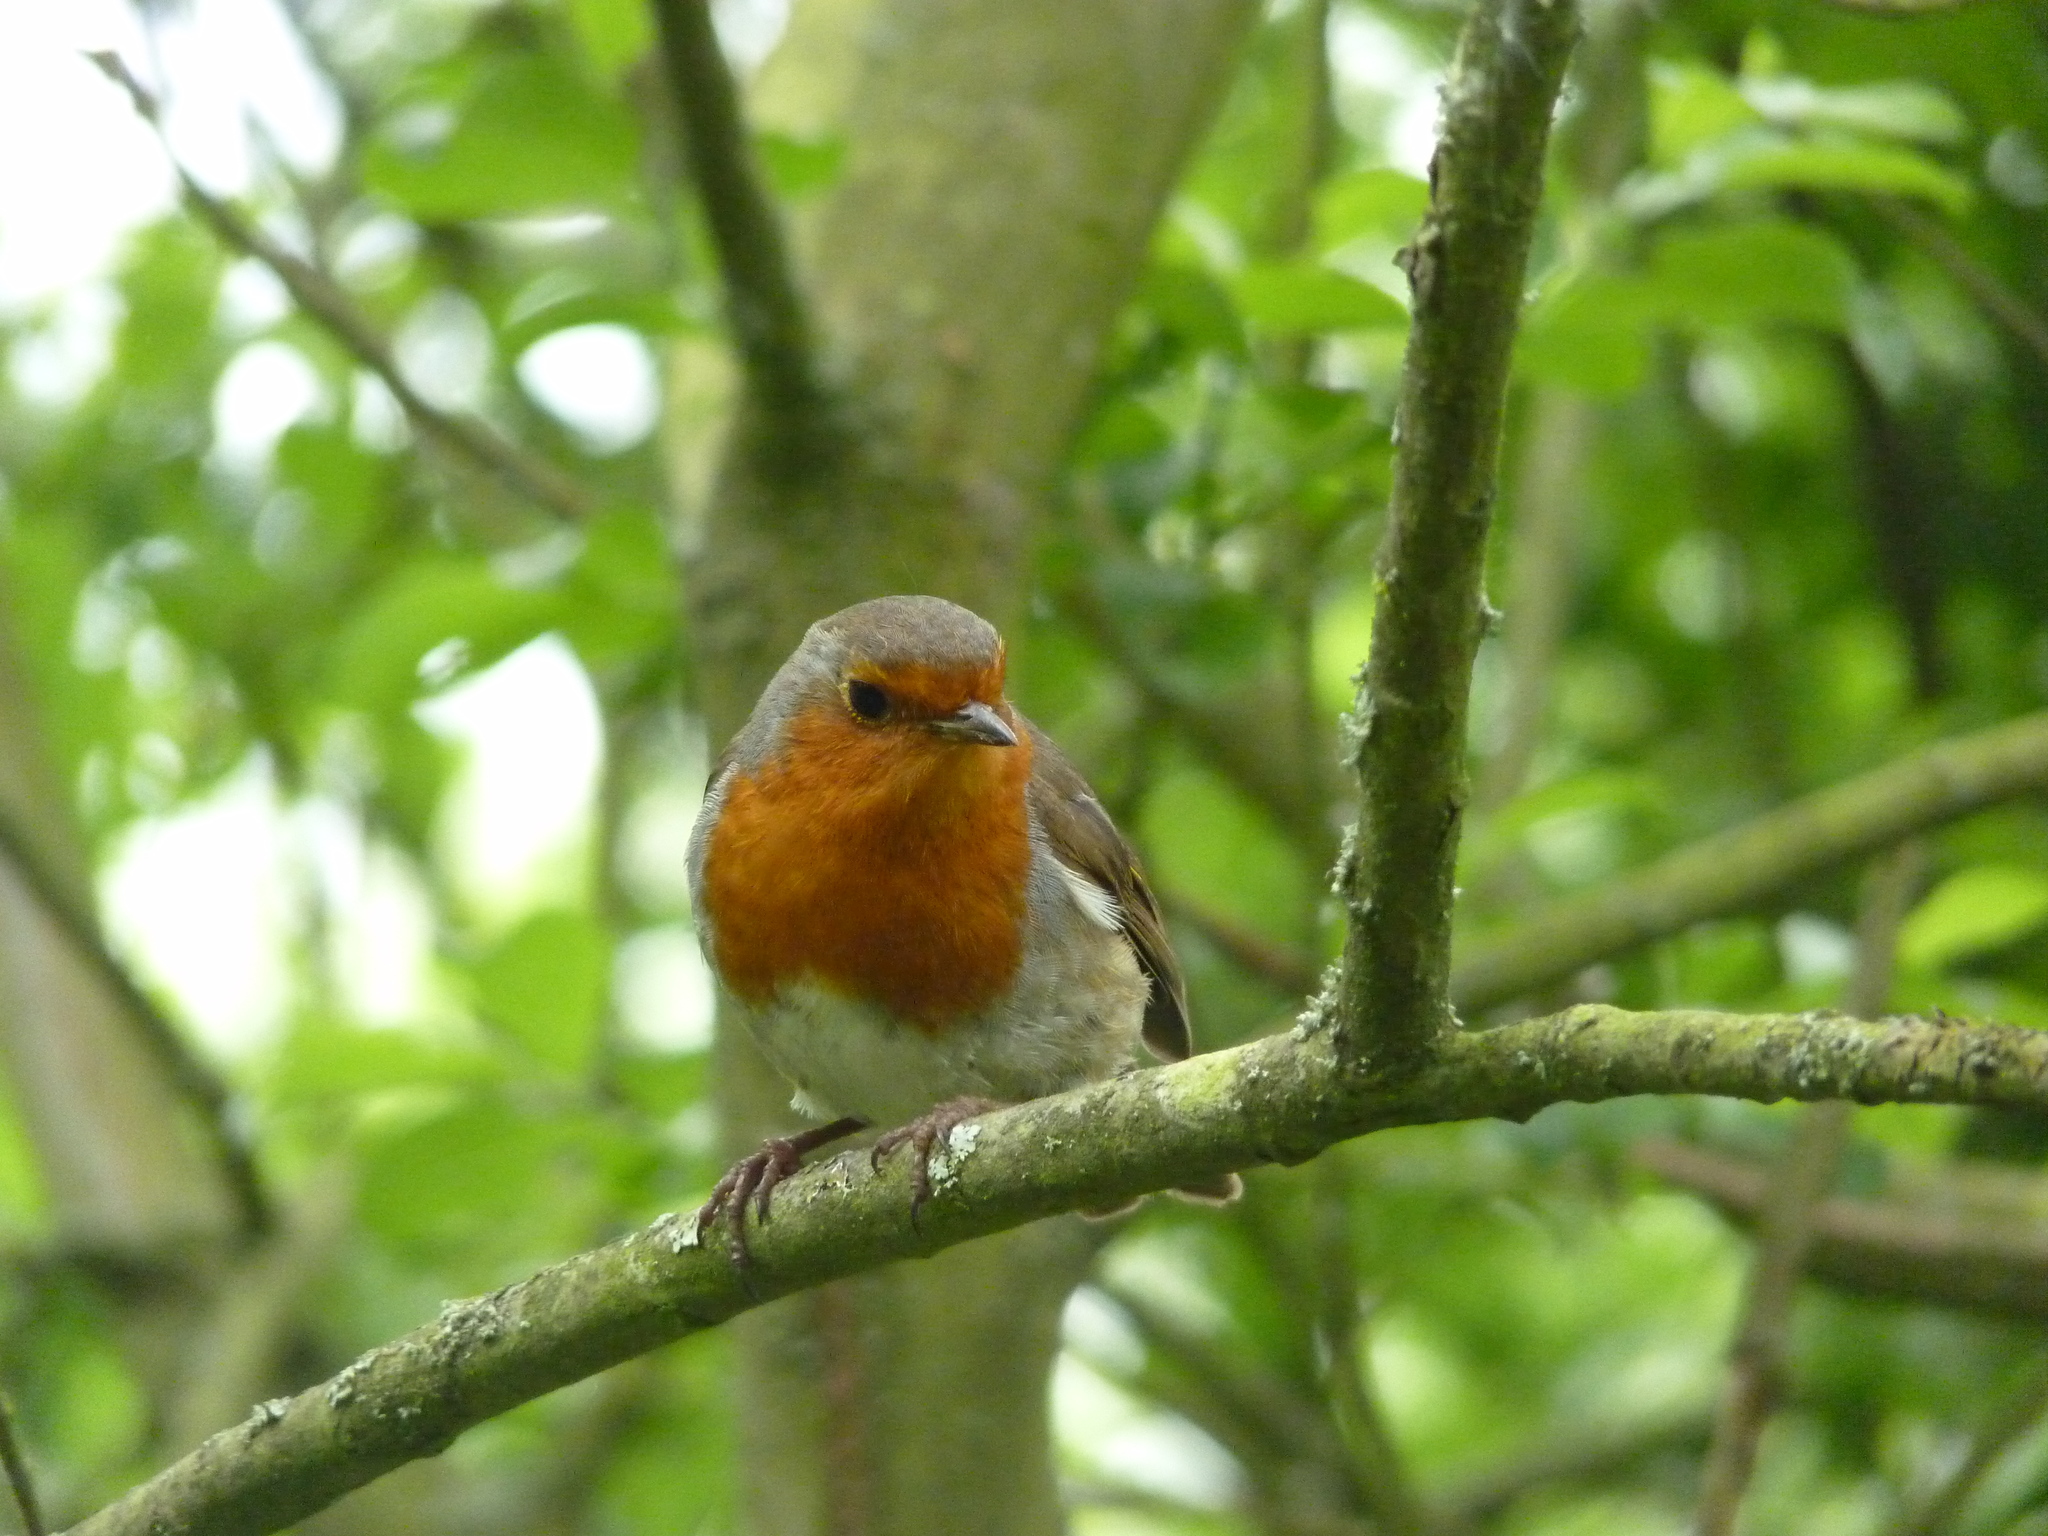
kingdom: Animalia
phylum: Chordata
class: Aves
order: Passeriformes
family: Muscicapidae
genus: Erithacus
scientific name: Erithacus rubecula
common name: European robin
